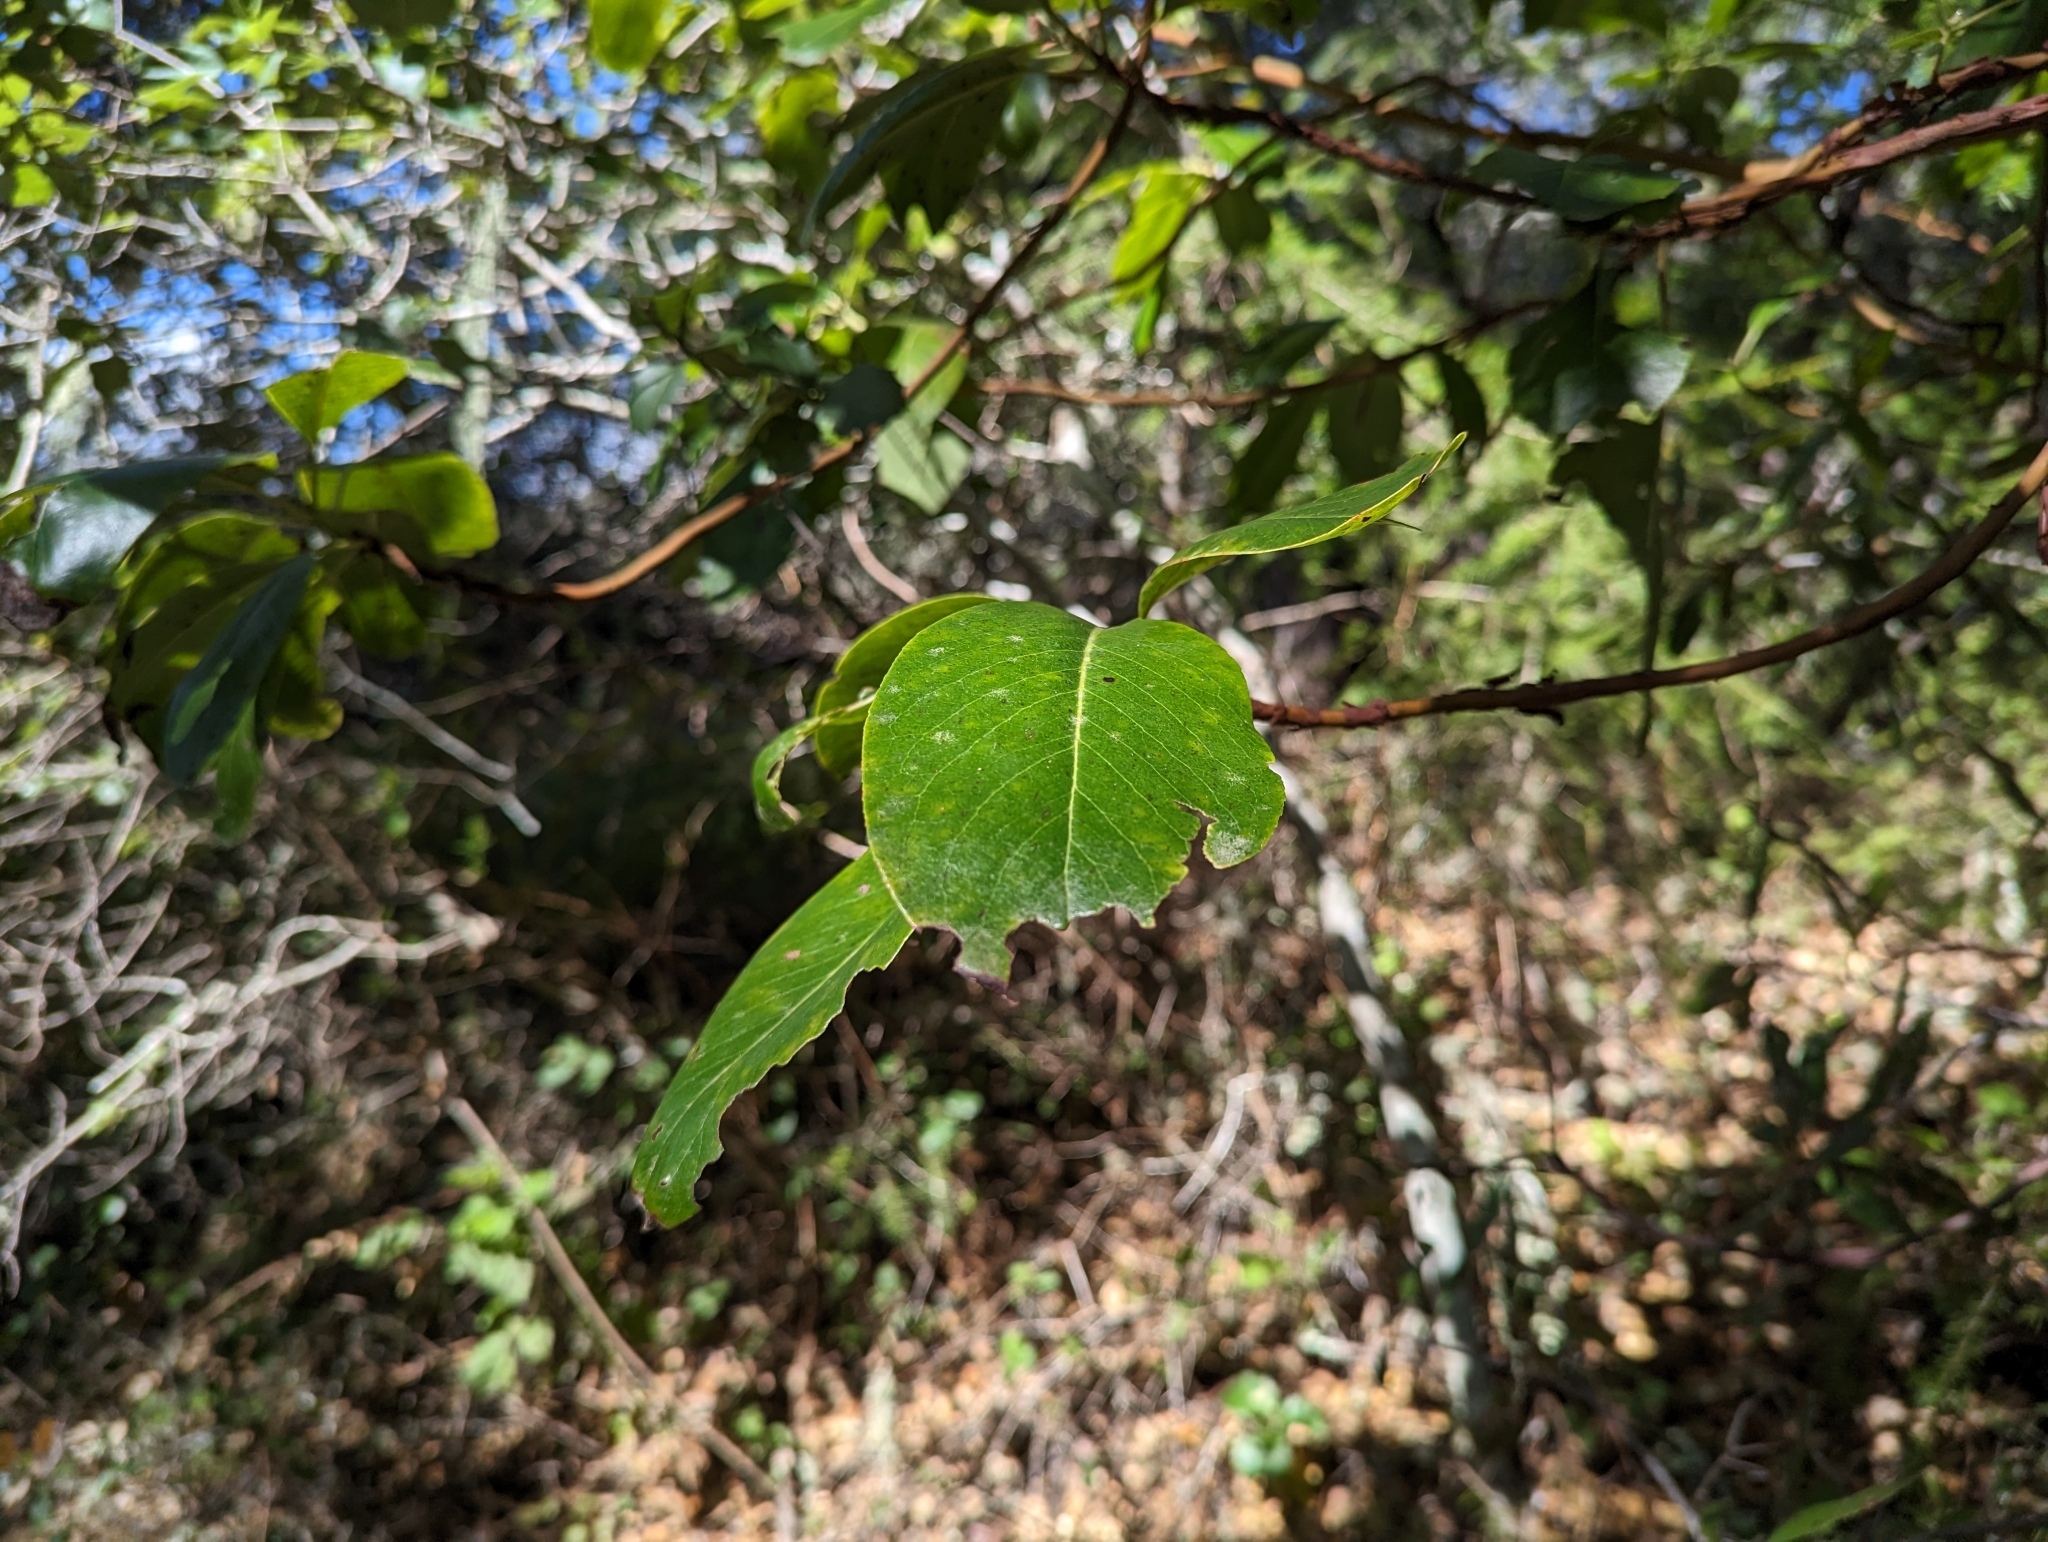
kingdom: Plantae
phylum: Tracheophyta
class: Magnoliopsida
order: Ericales
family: Ericaceae
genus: Arbutus
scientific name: Arbutus menziesii
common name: Pacific madrone
